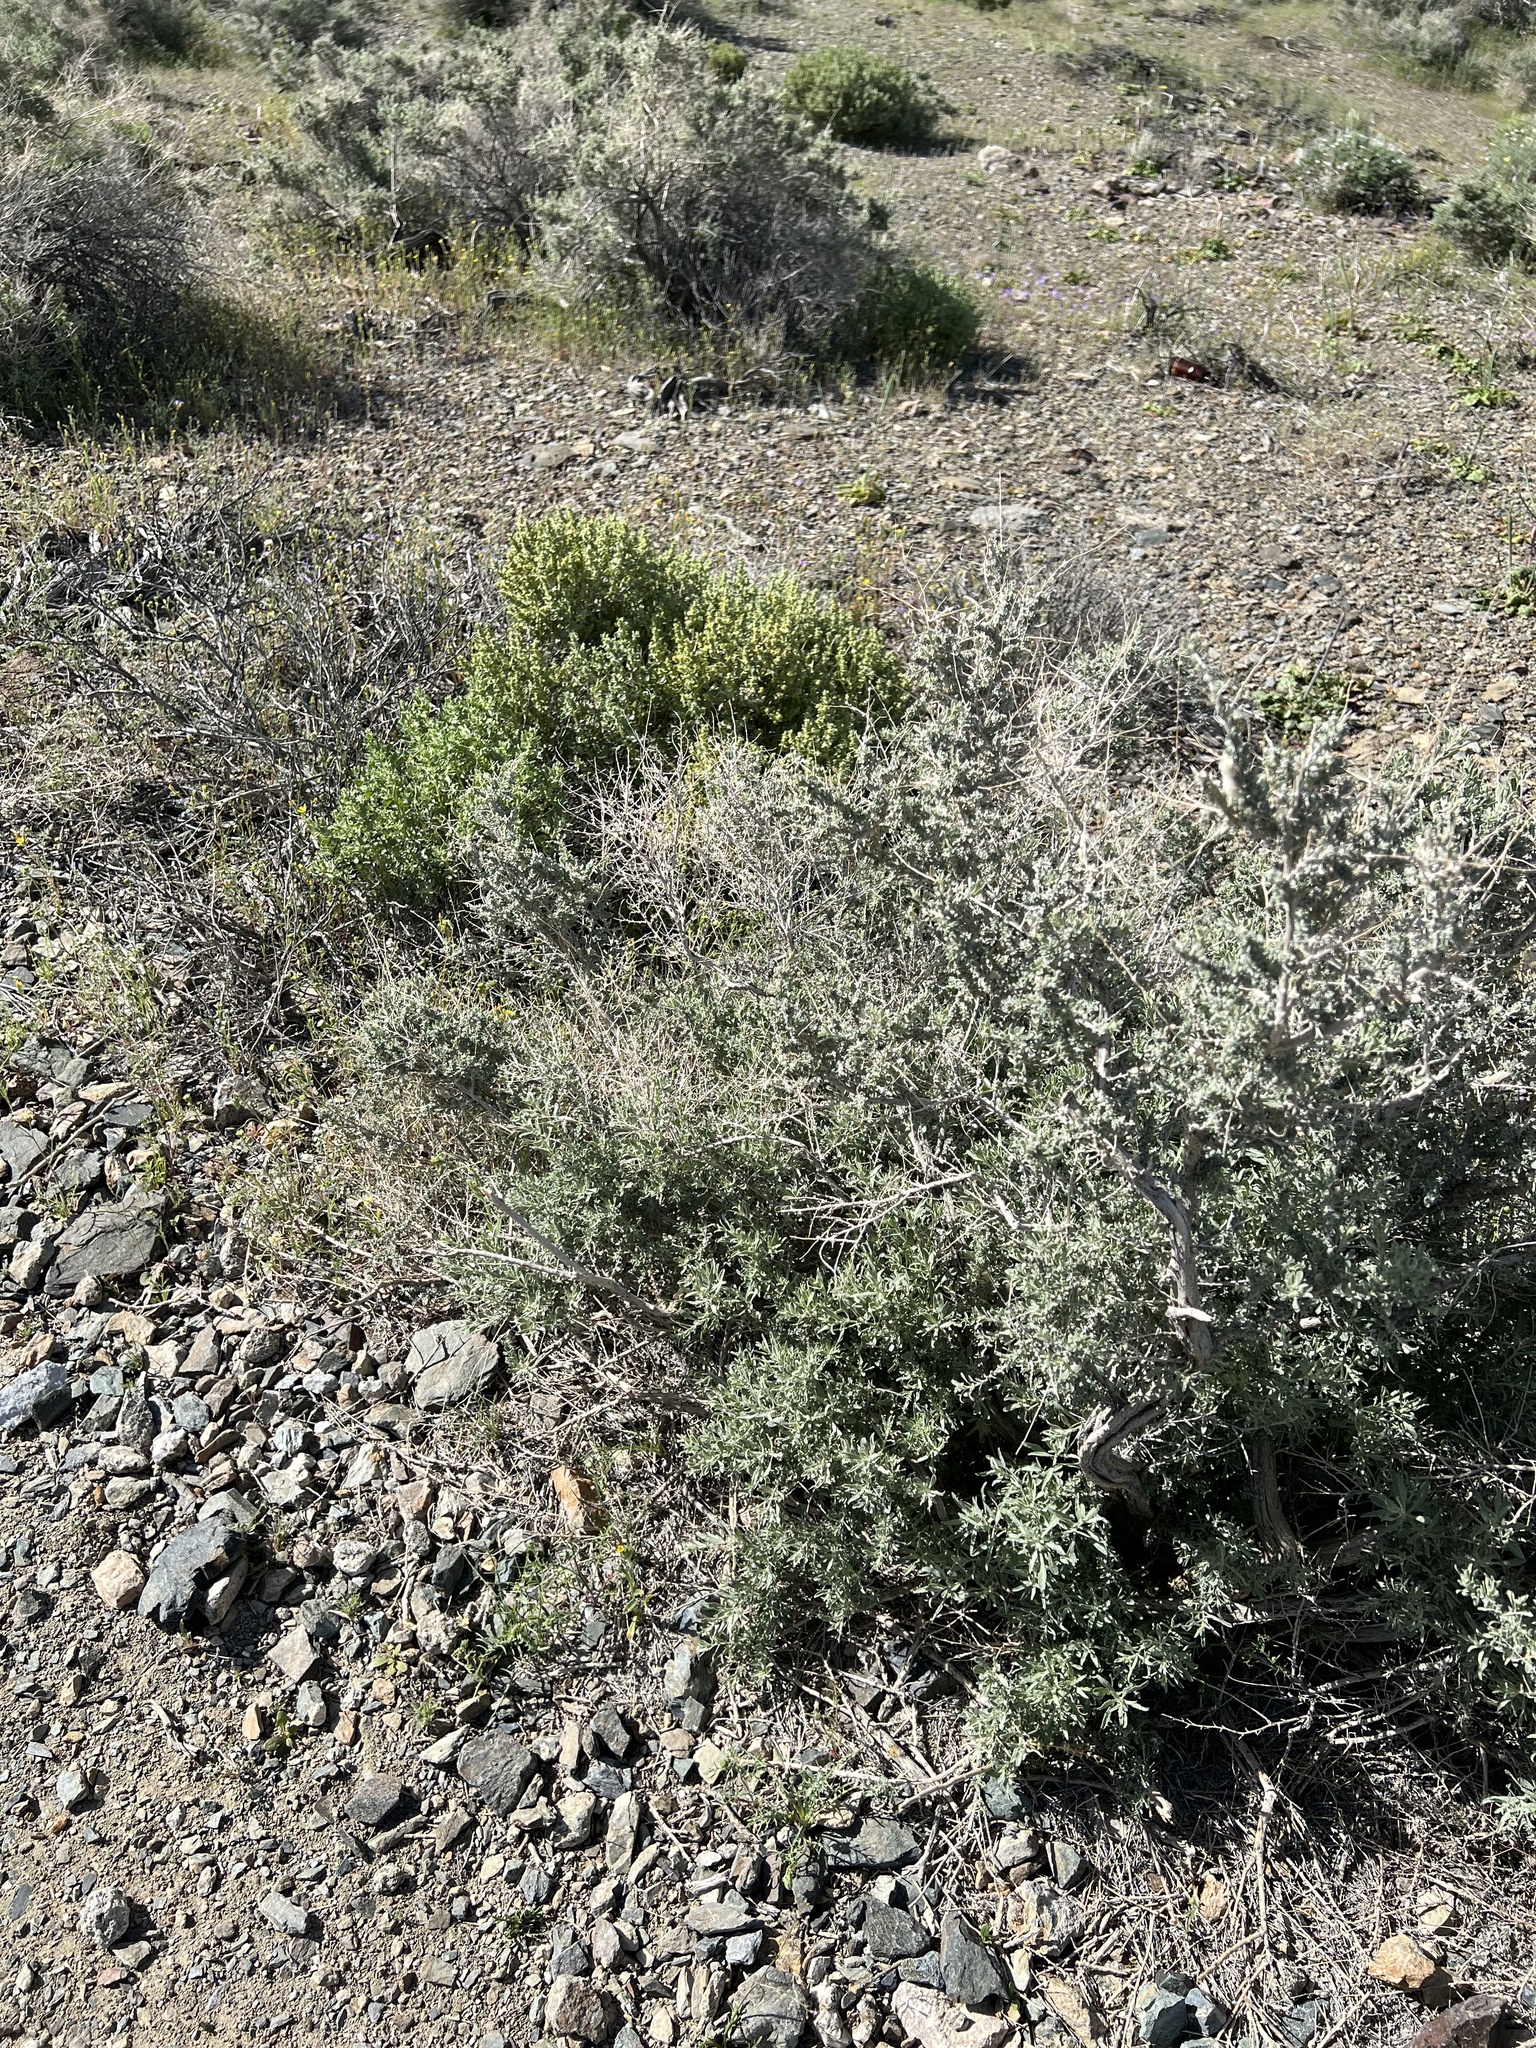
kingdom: Plantae
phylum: Tracheophyta
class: Magnoliopsida
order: Caryophyllales
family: Amaranthaceae
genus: Atriplex
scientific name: Atriplex polycarpa
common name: Desert saltbush
